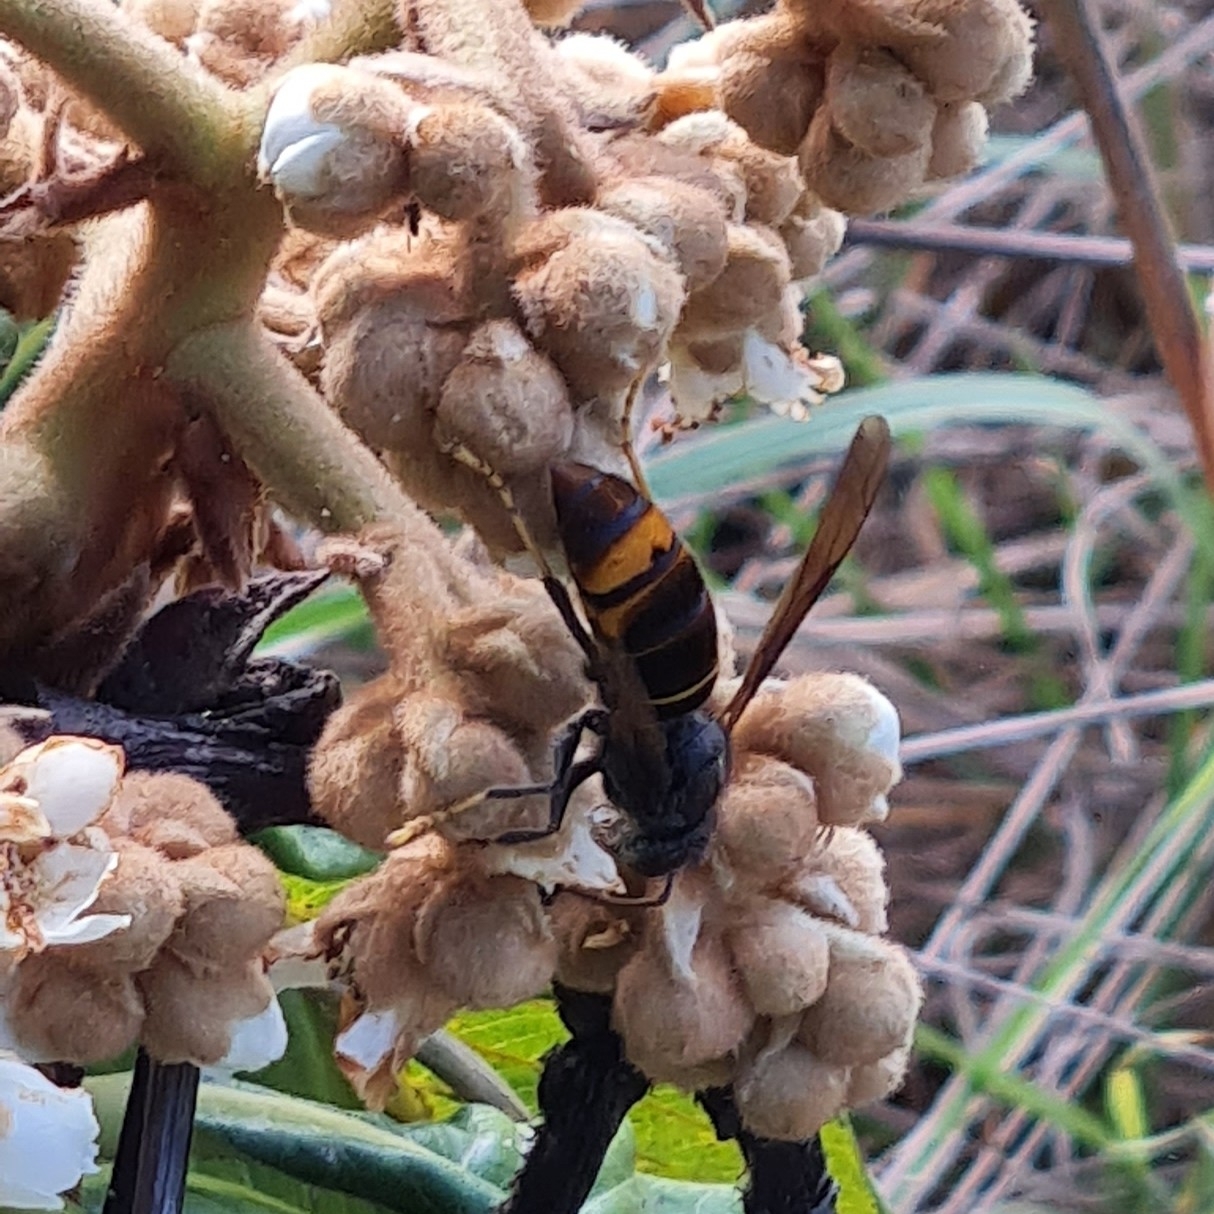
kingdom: Animalia
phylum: Arthropoda
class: Insecta
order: Hymenoptera
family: Vespidae
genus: Vespa
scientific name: Vespa velutina
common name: Asian hornet
